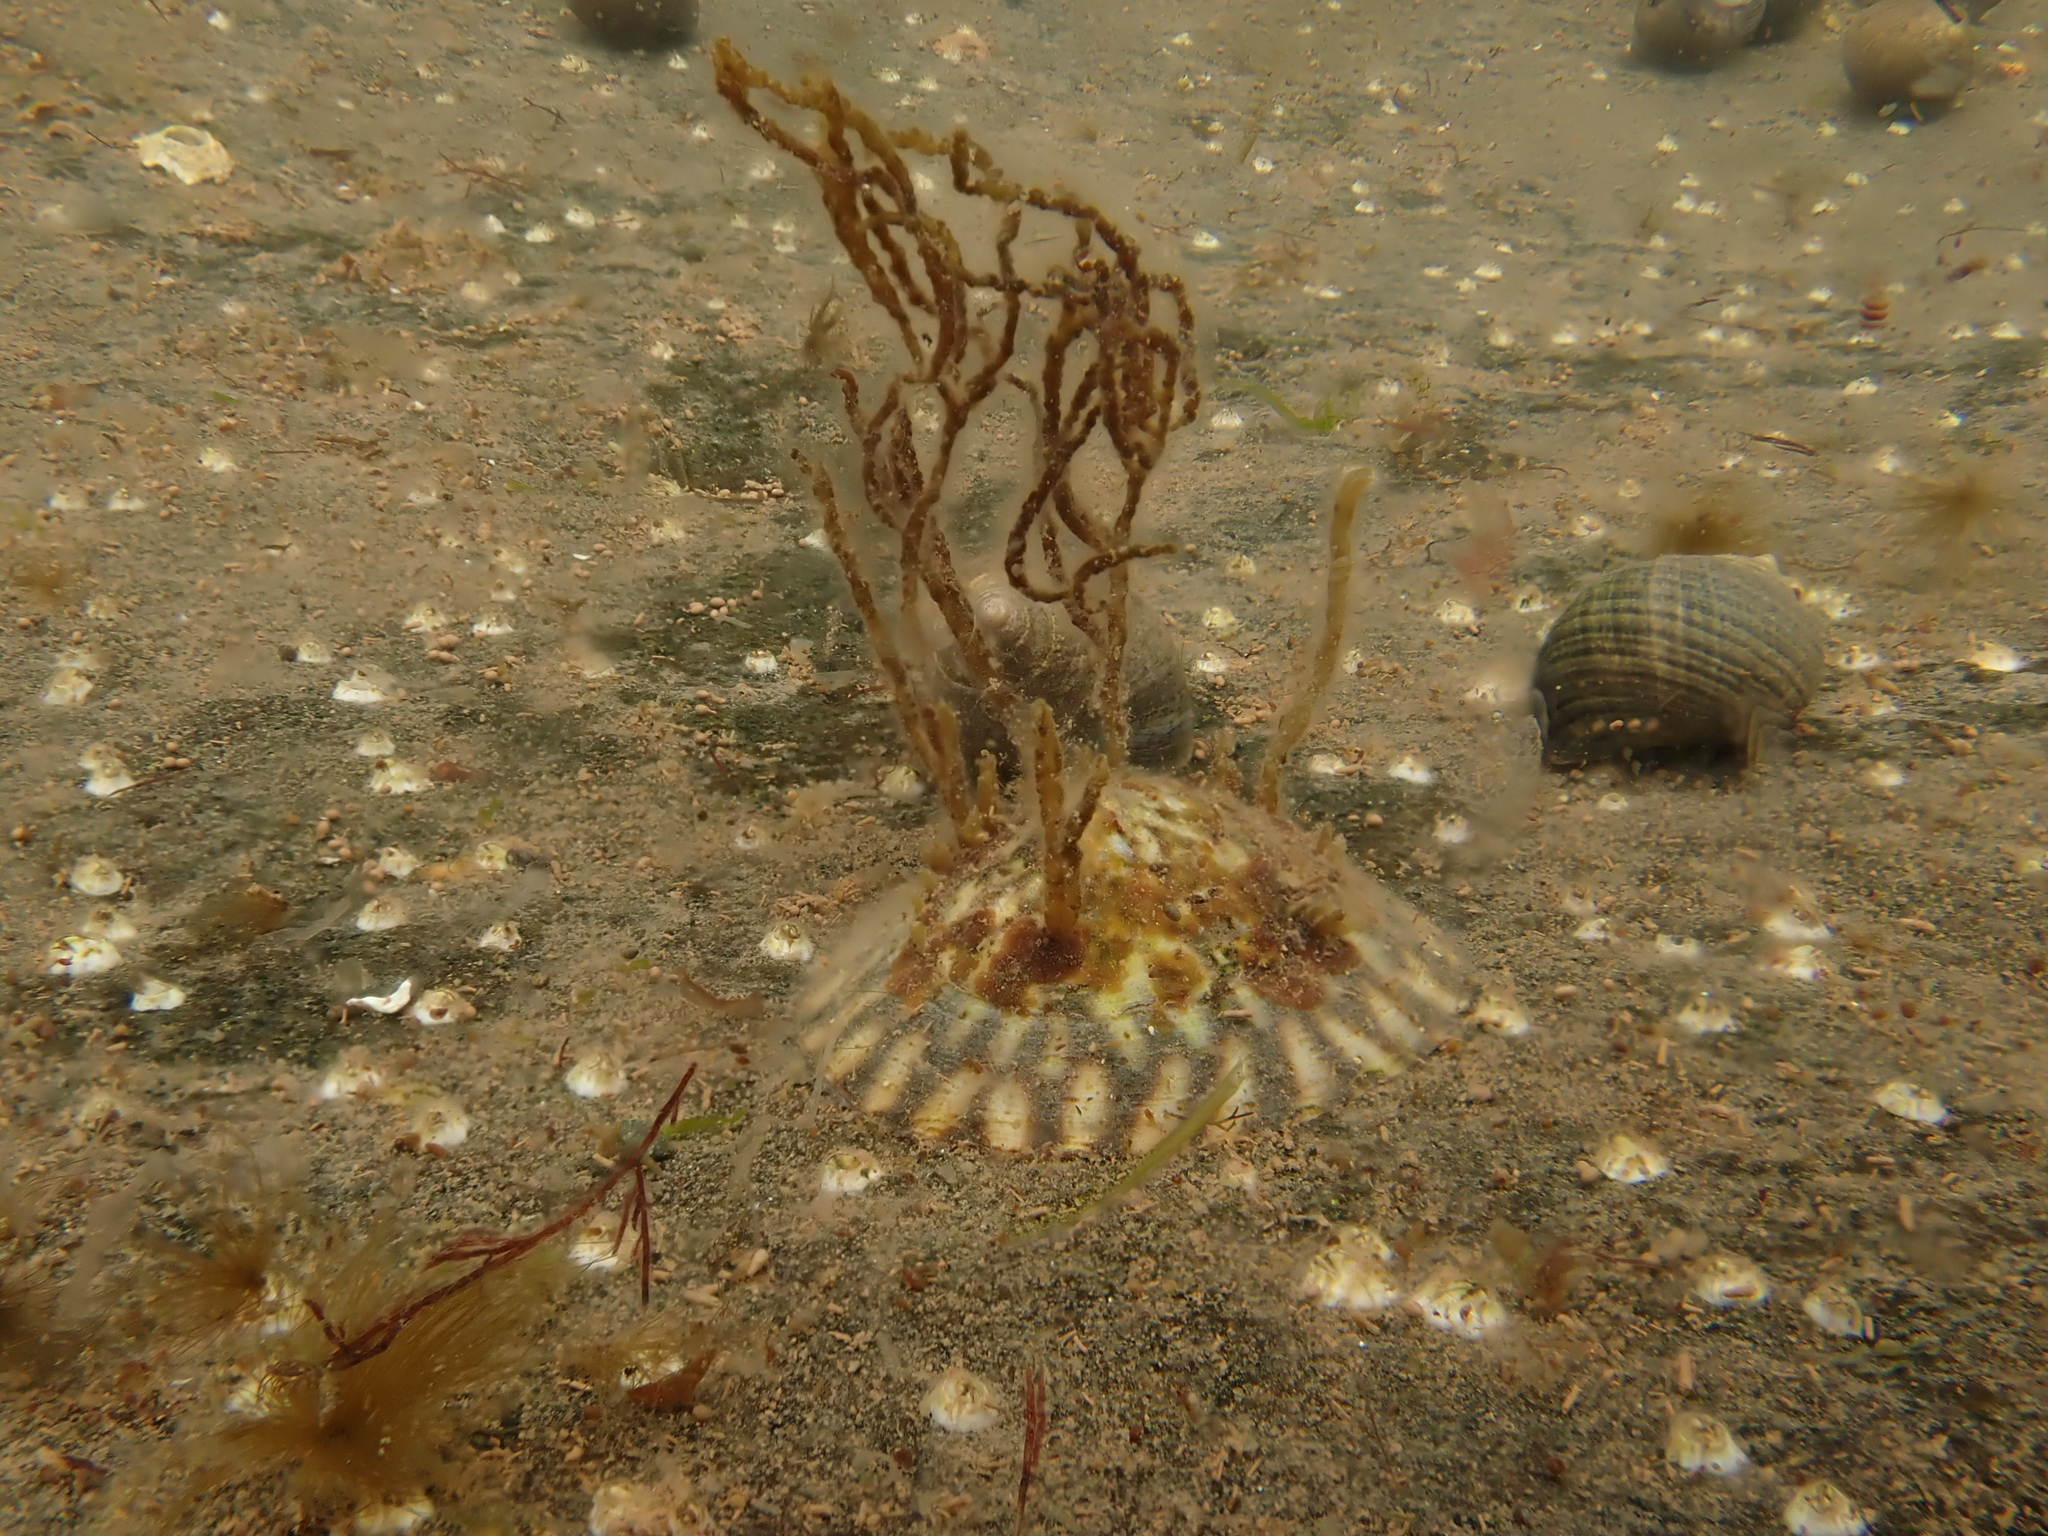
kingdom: Animalia
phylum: Mollusca
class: Gastropoda
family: Lottiidae
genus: Testudinalia
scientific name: Testudinalia testudinalis
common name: Common tortoiseshell limpet
